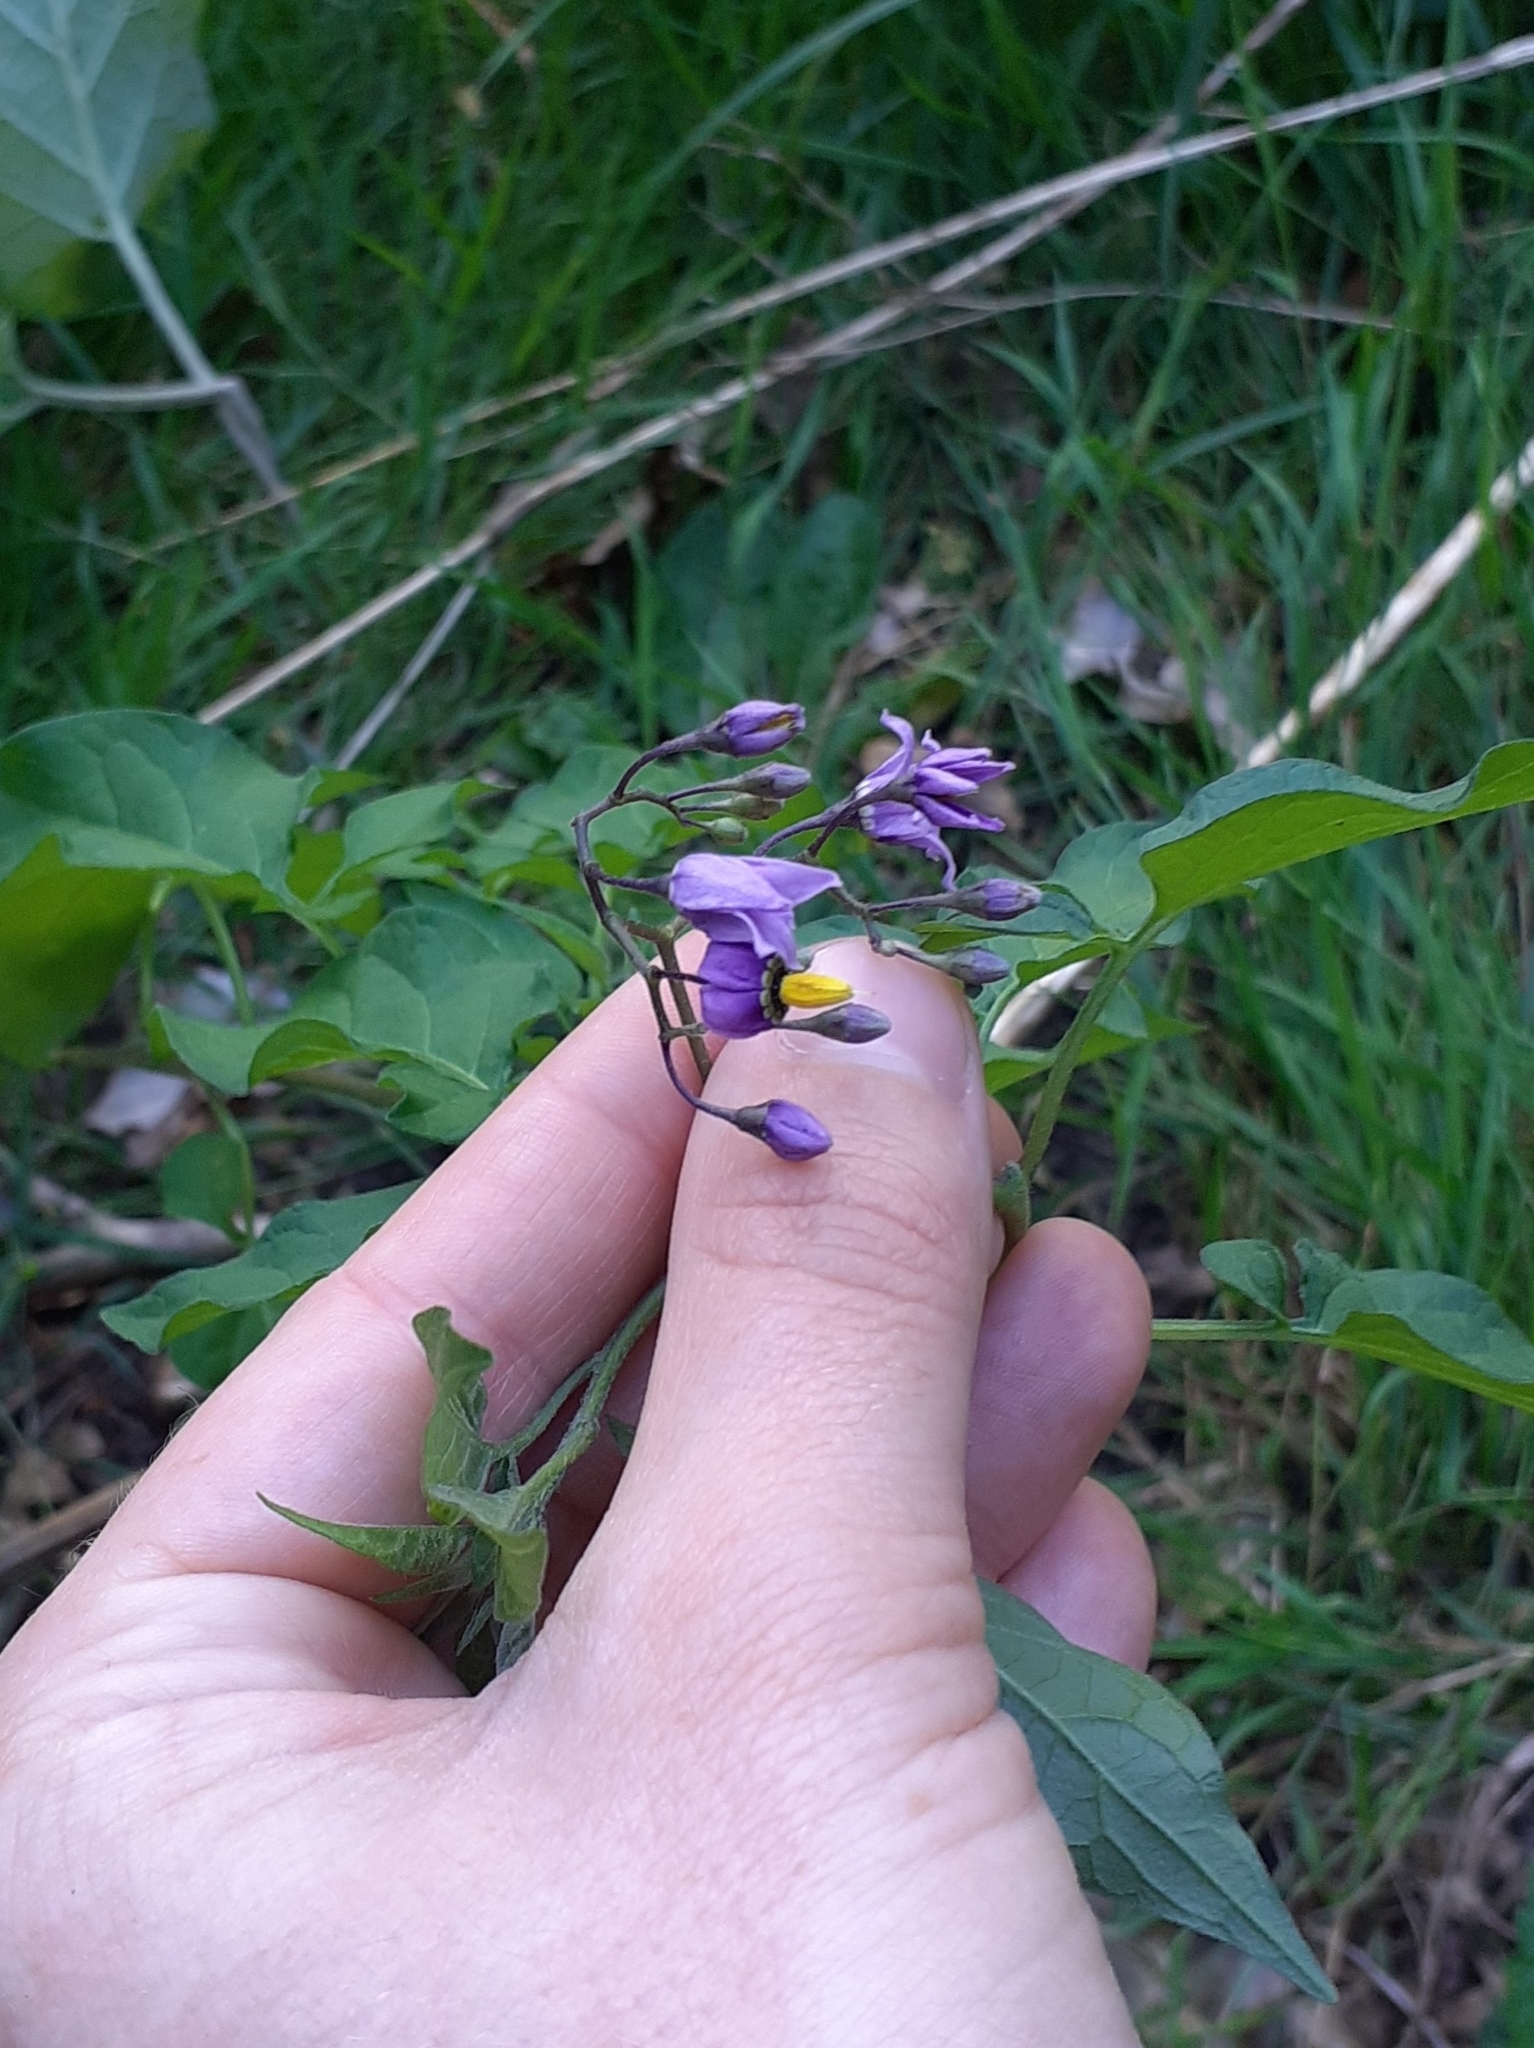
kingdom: Plantae
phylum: Tracheophyta
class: Magnoliopsida
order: Solanales
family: Solanaceae
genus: Solanum
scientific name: Solanum dulcamara
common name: Climbing nightshade
